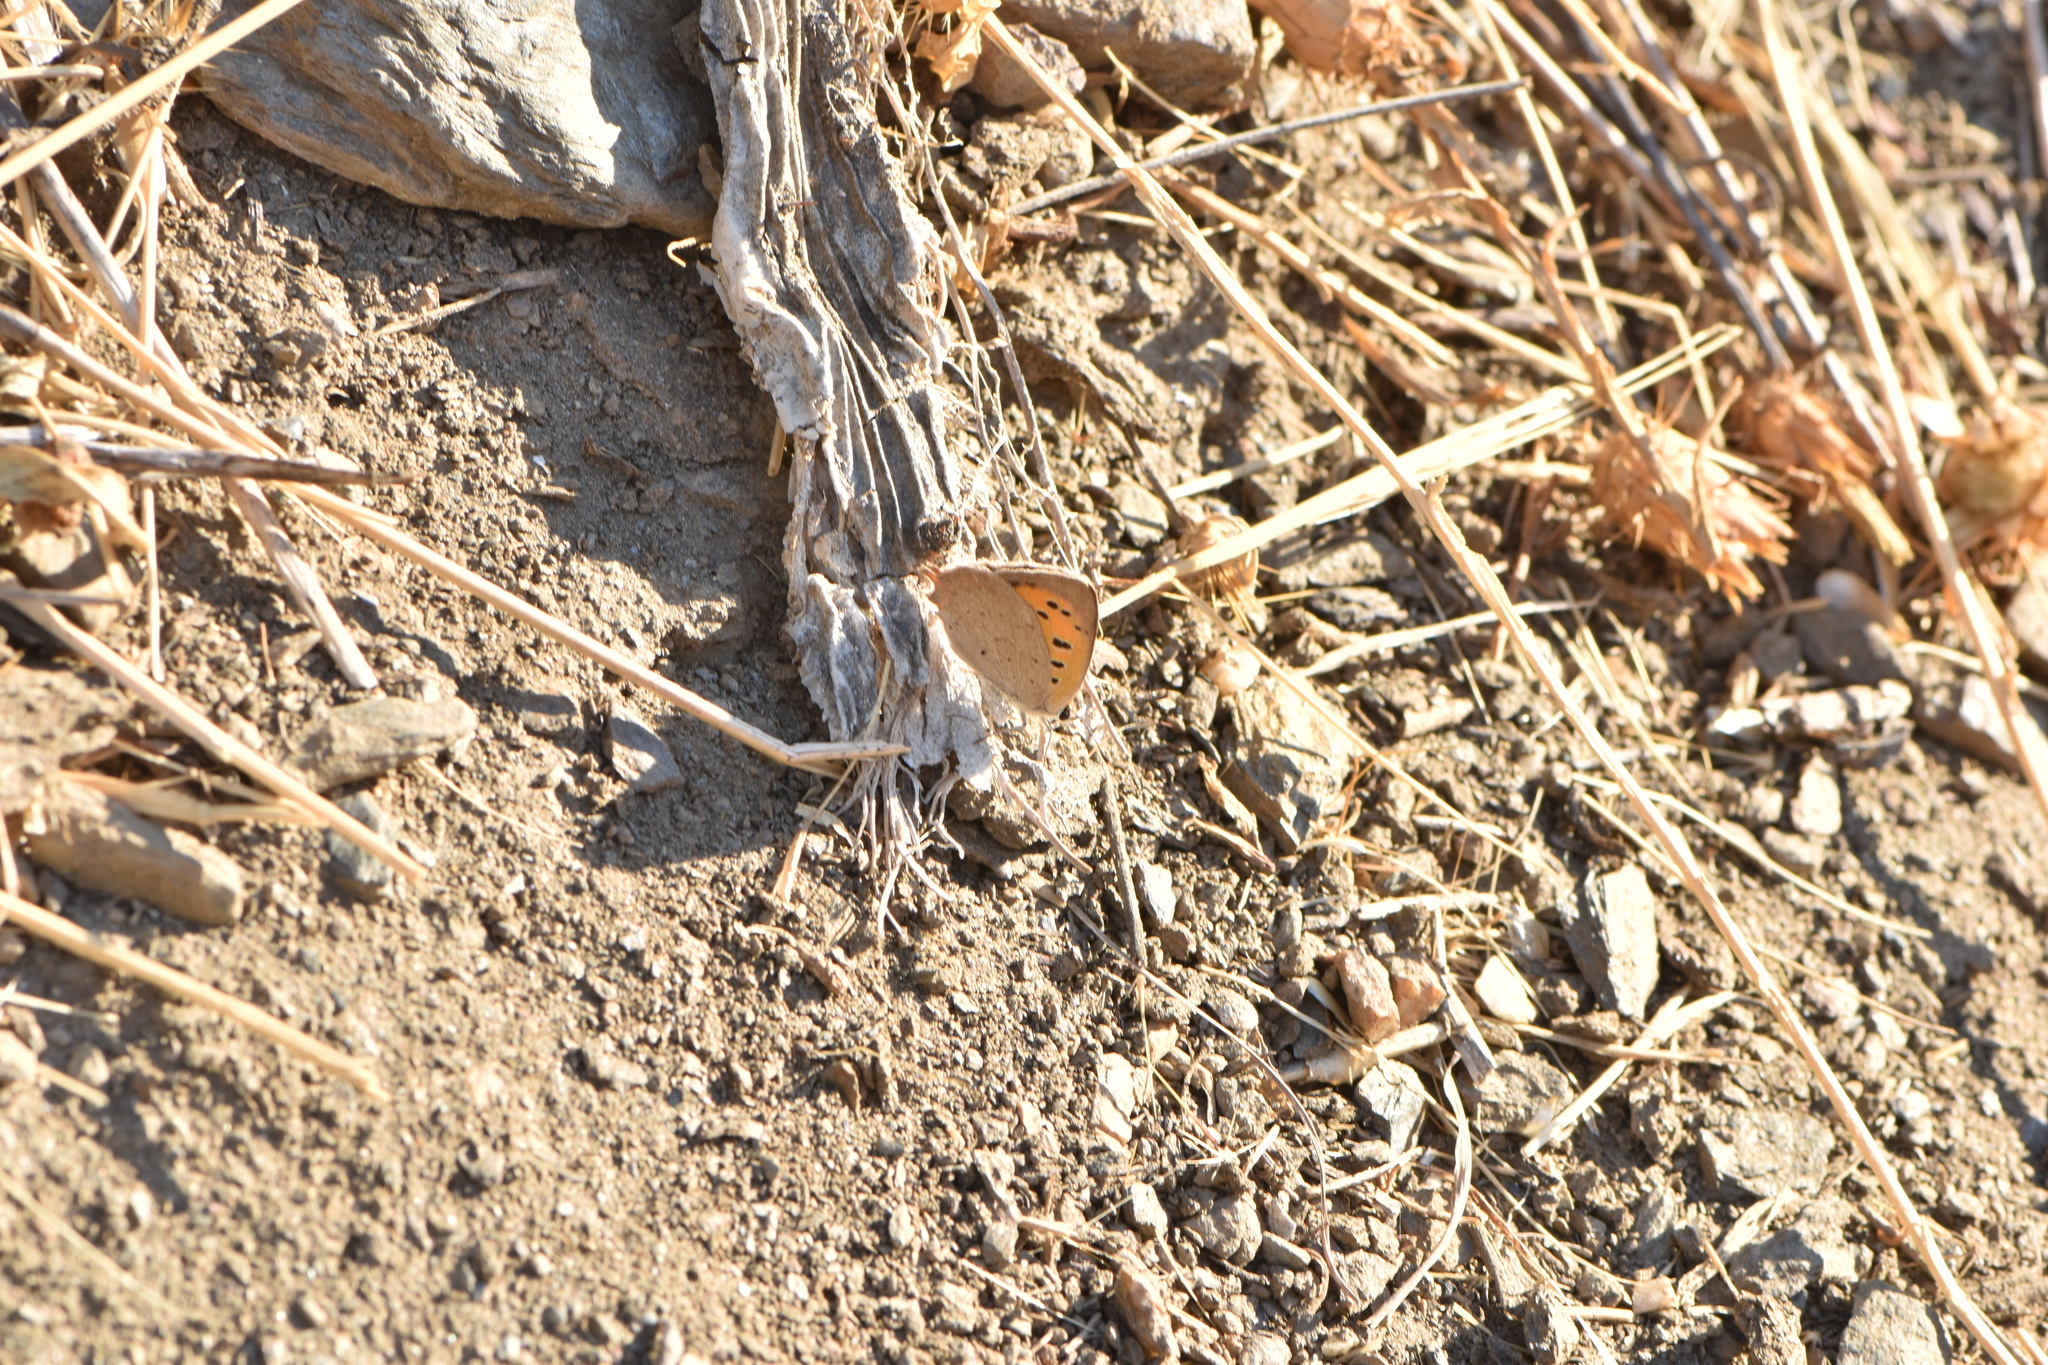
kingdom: Animalia
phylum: Arthropoda
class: Insecta
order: Lepidoptera
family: Lycaenidae
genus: Lycaena
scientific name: Lycaena phlaeas
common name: Small copper
